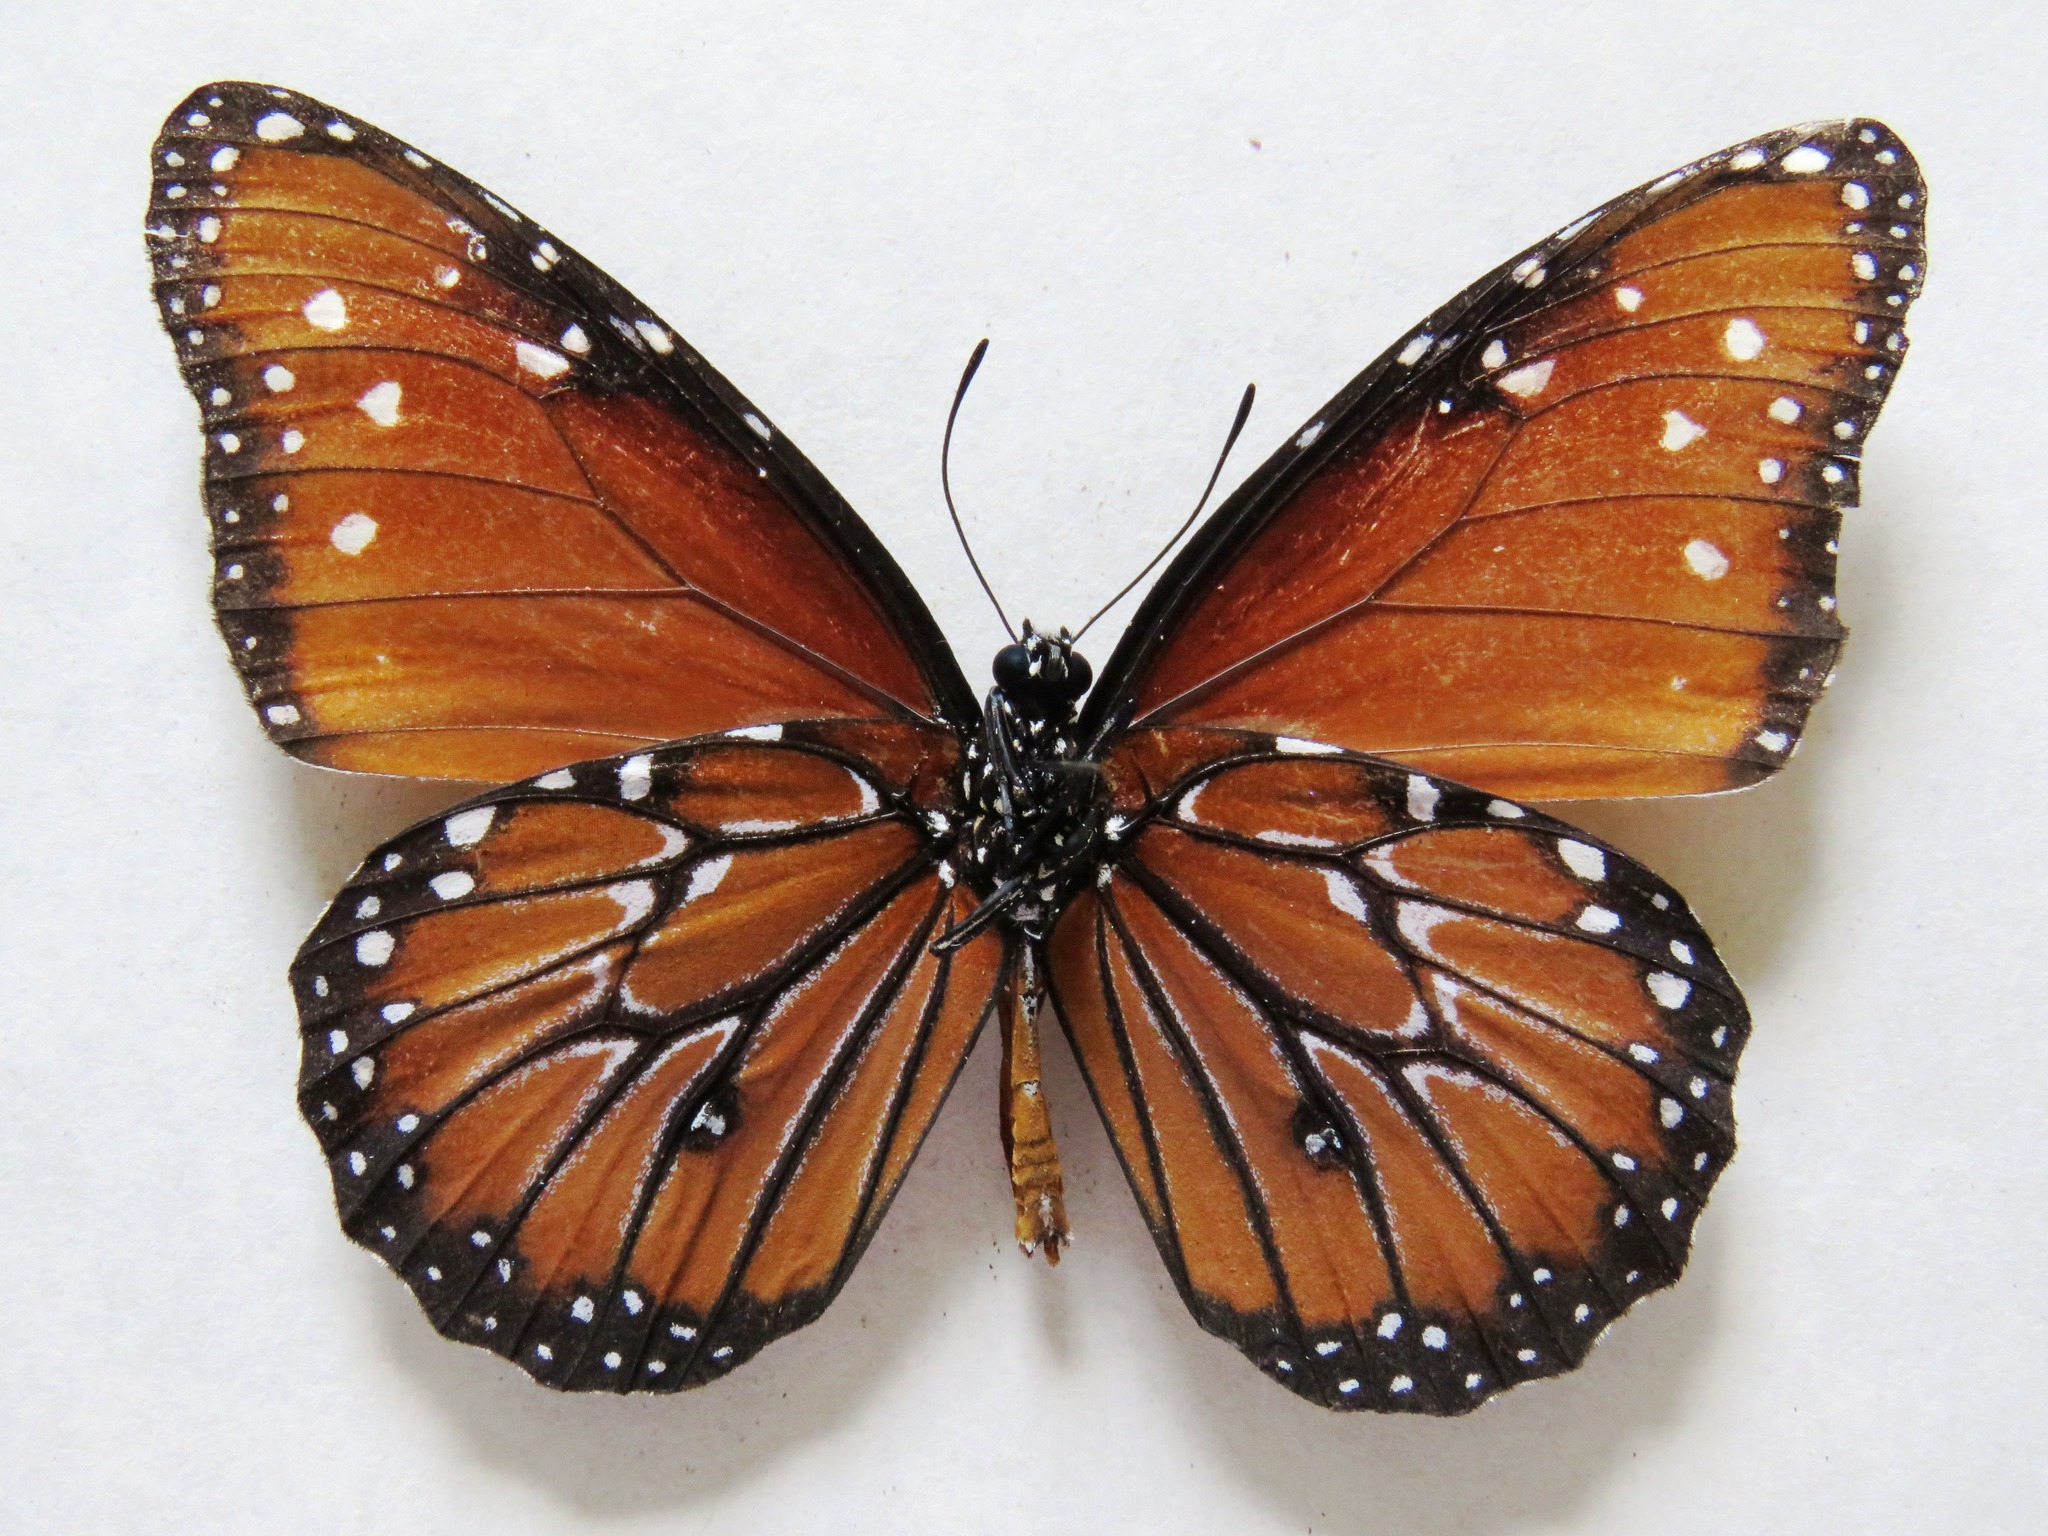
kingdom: Animalia
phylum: Arthropoda
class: Insecta
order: Lepidoptera
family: Nymphalidae
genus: Danaus
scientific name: Danaus gilippus
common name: Queen
